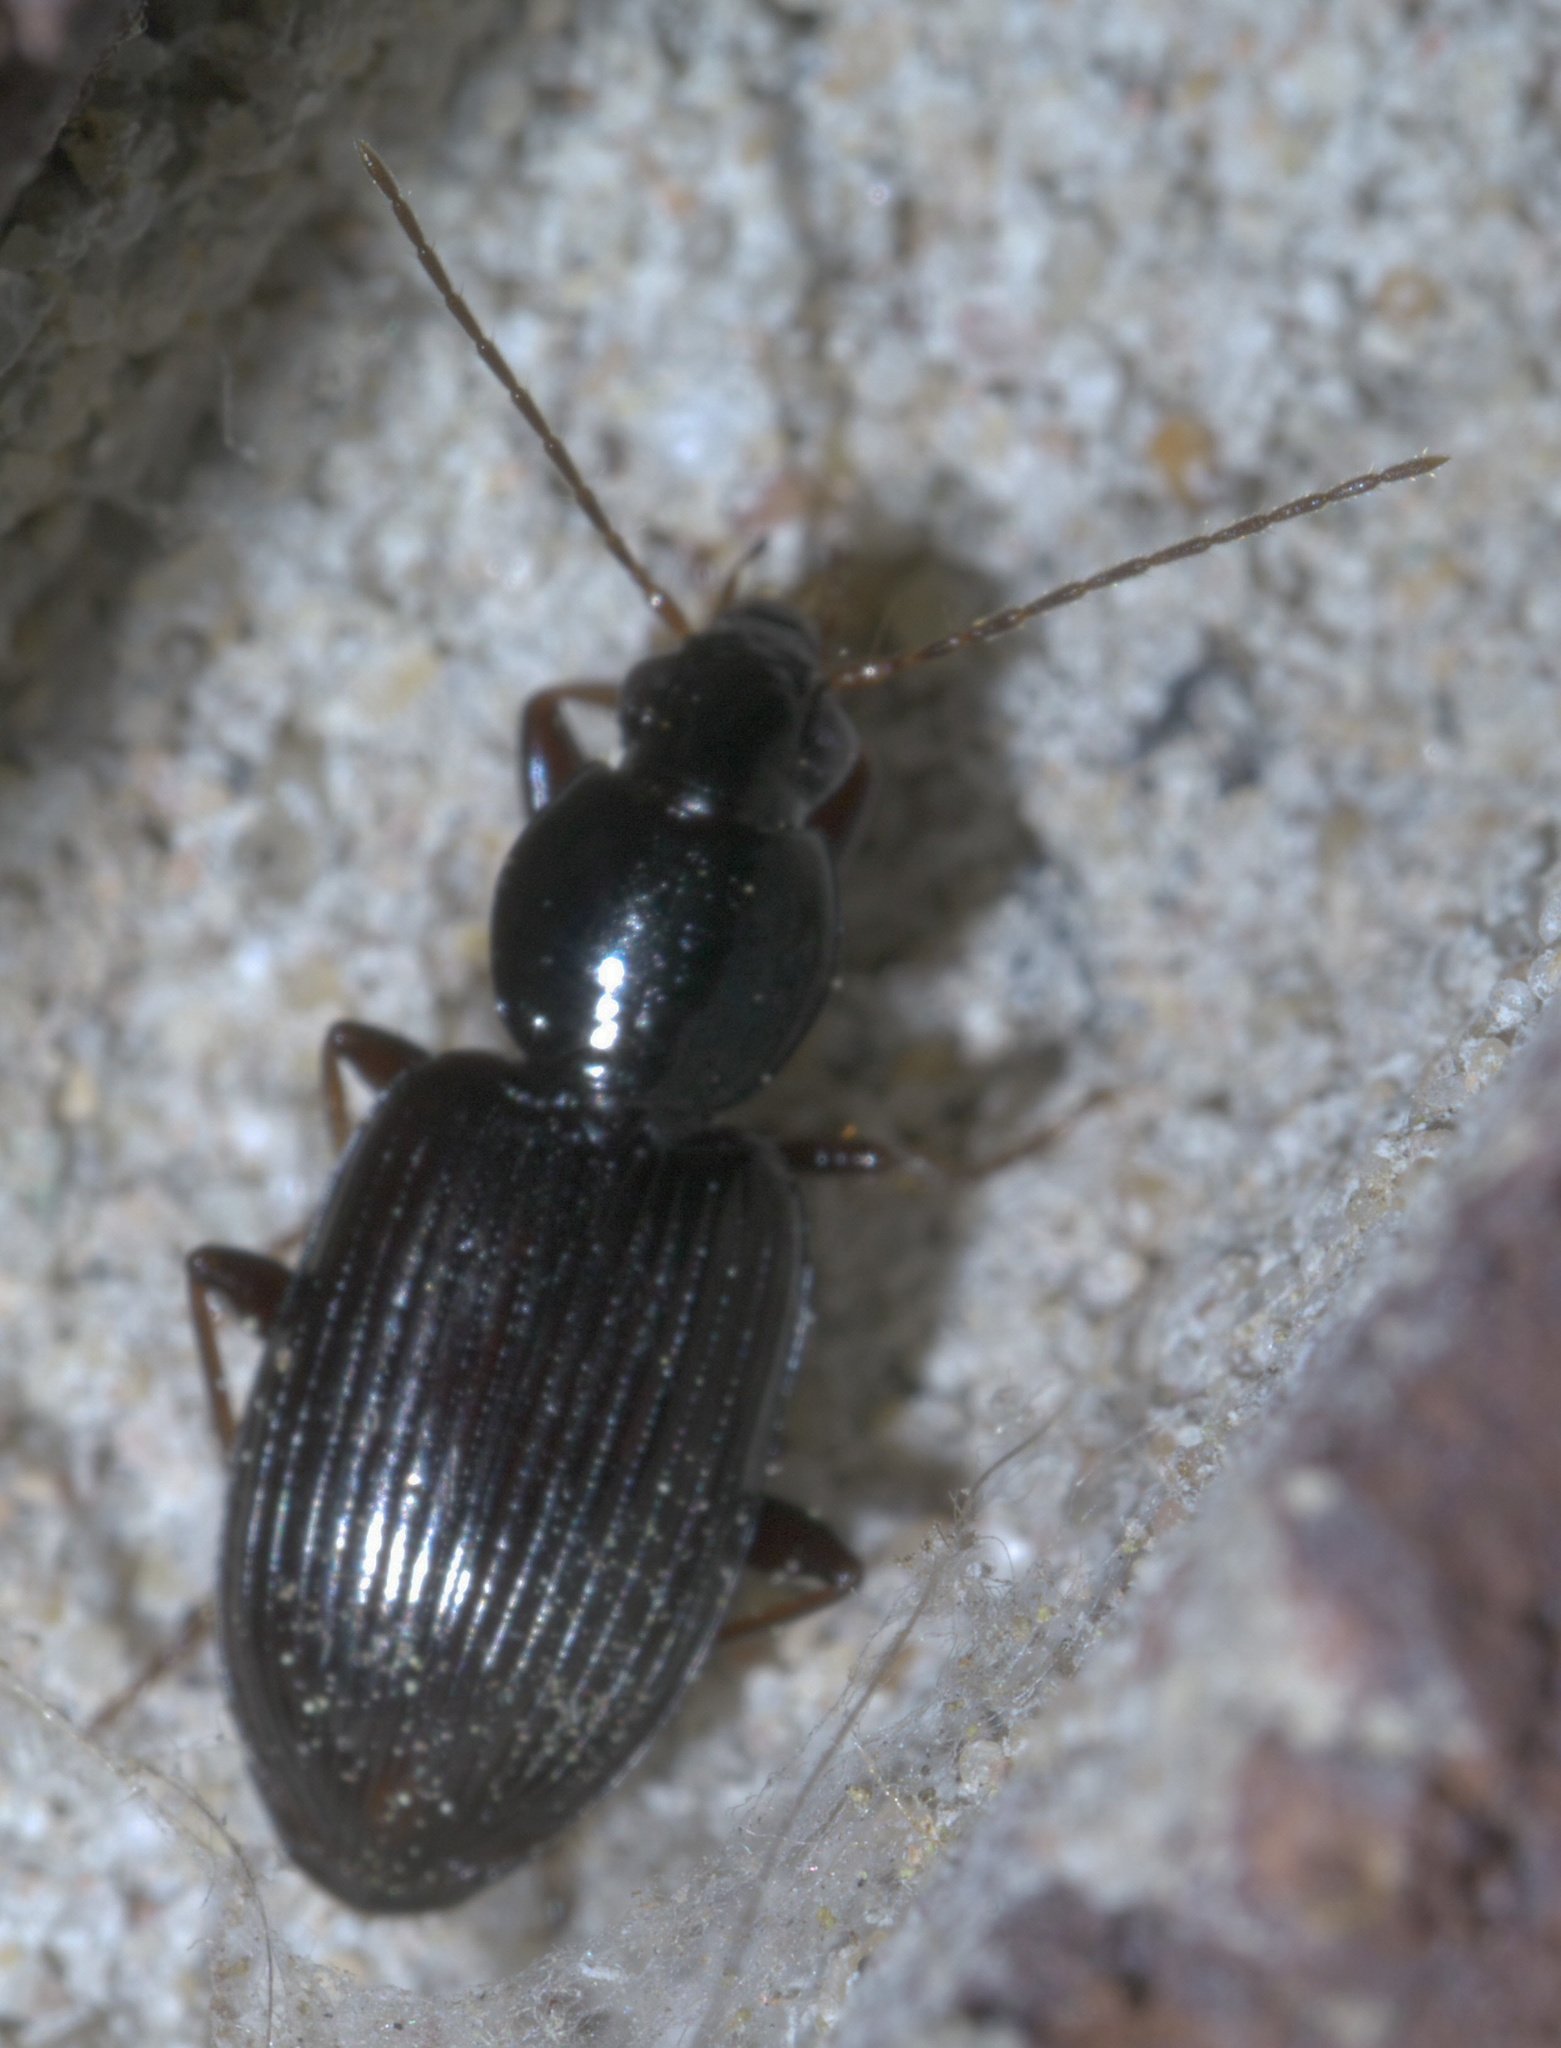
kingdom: Animalia
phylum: Arthropoda
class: Insecta
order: Coleoptera
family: Carabidae
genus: Agonum
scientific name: Agonum punctiforme
